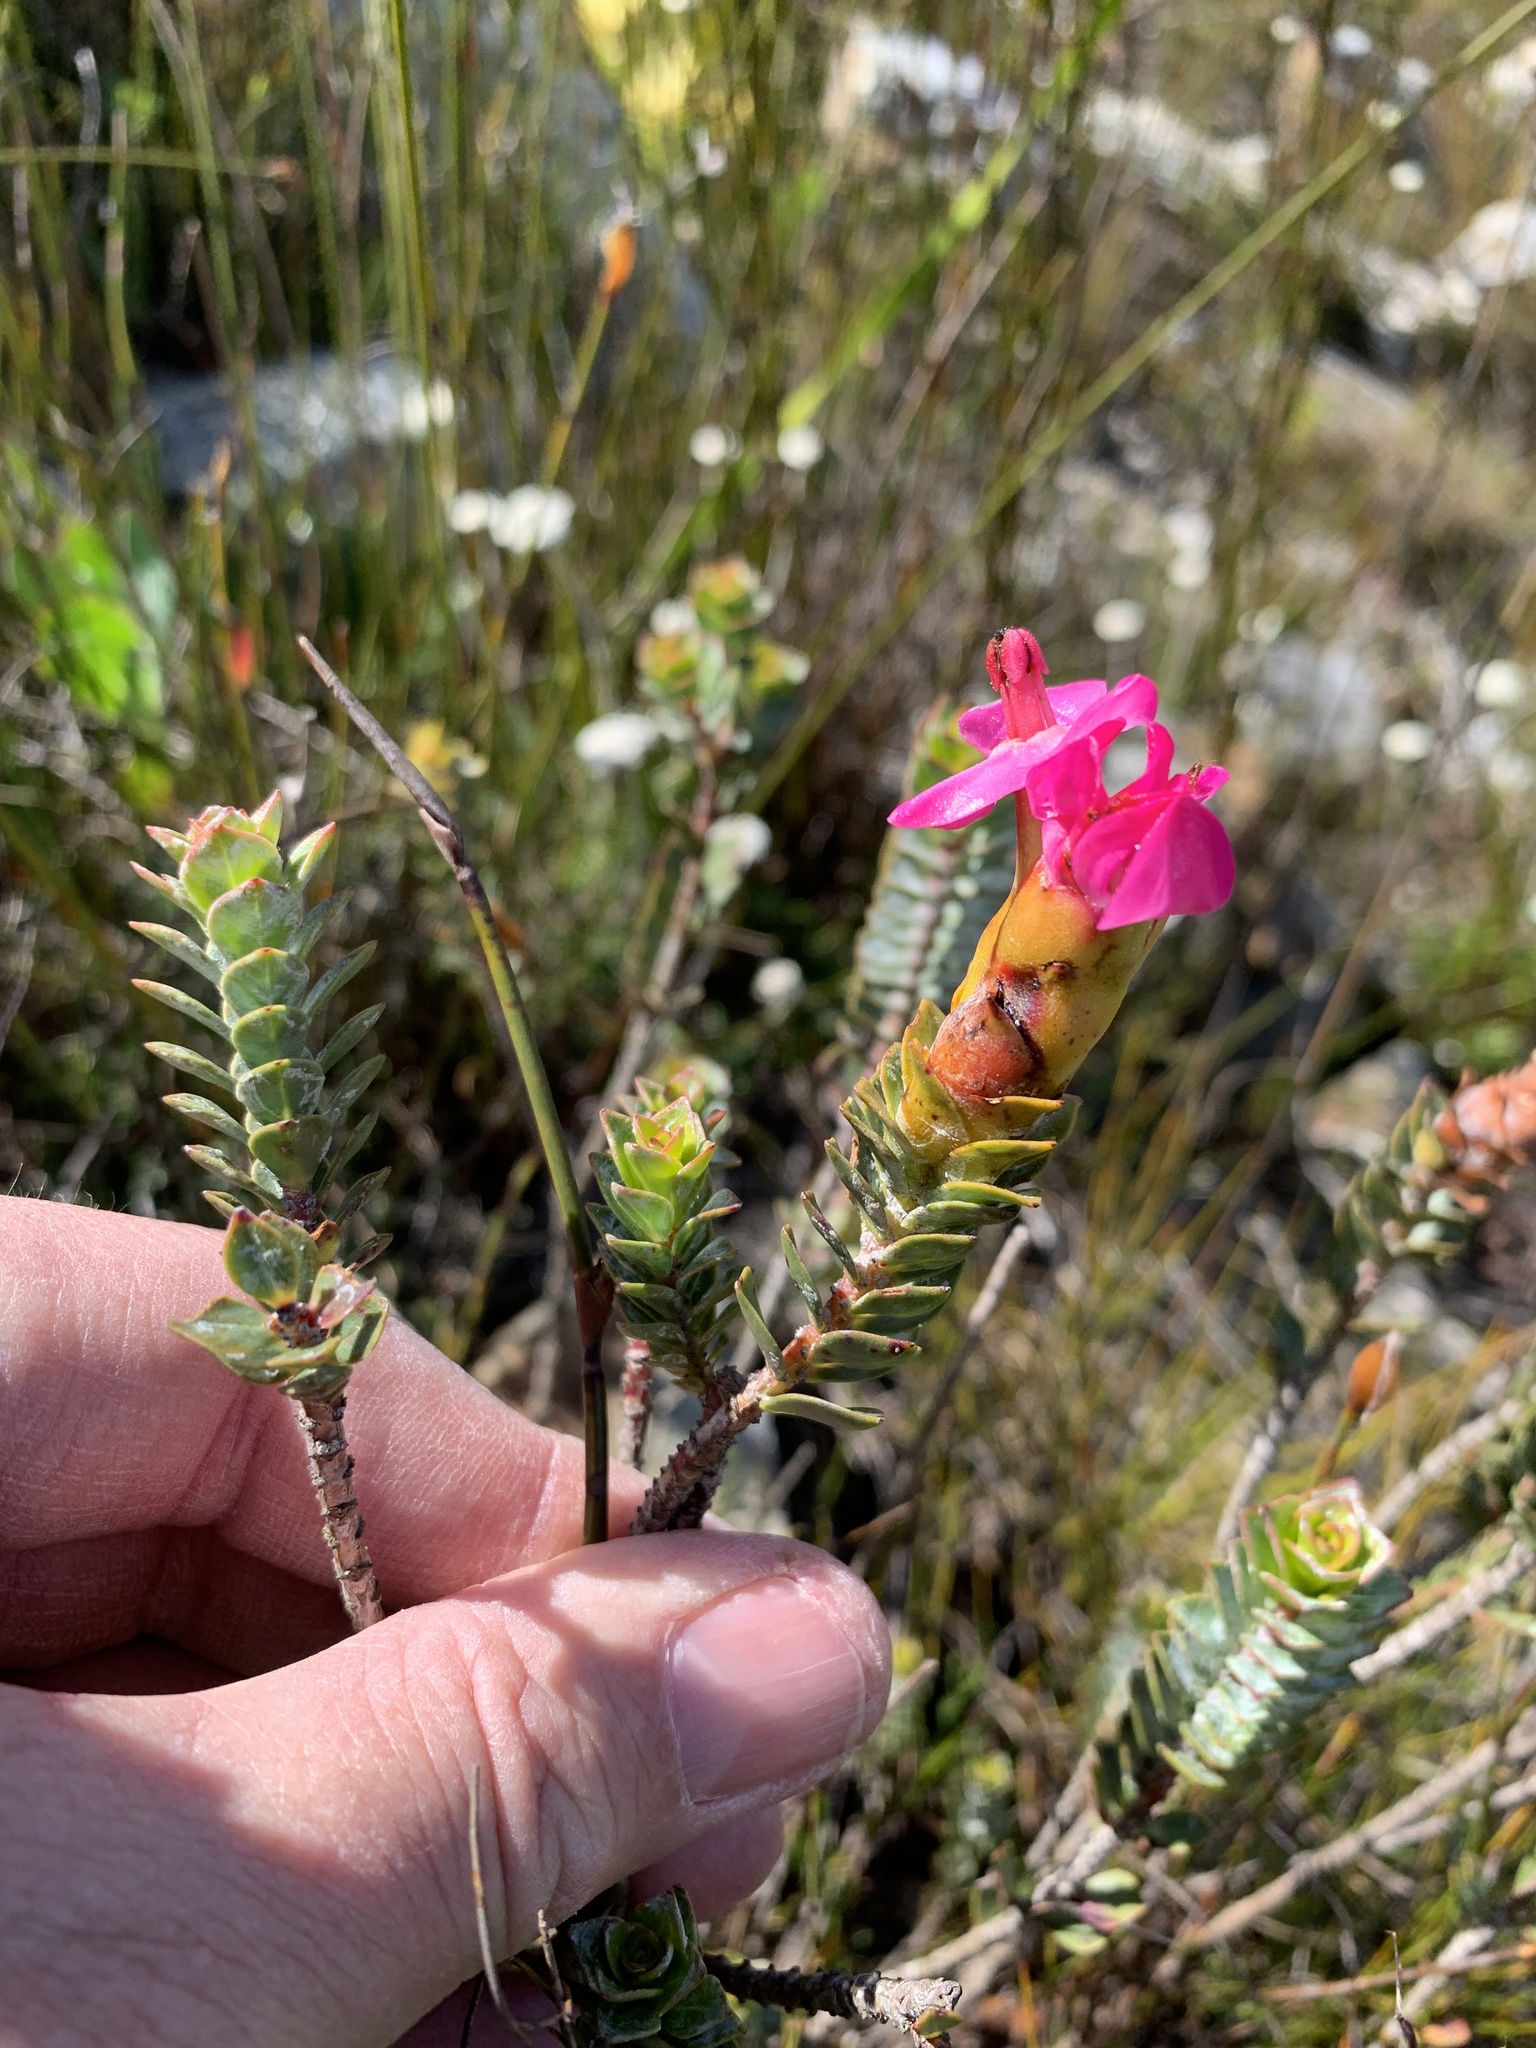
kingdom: Plantae
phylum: Tracheophyta
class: Magnoliopsida
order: Myrtales
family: Penaeaceae
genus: Saltera
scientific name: Saltera sarcocolla
